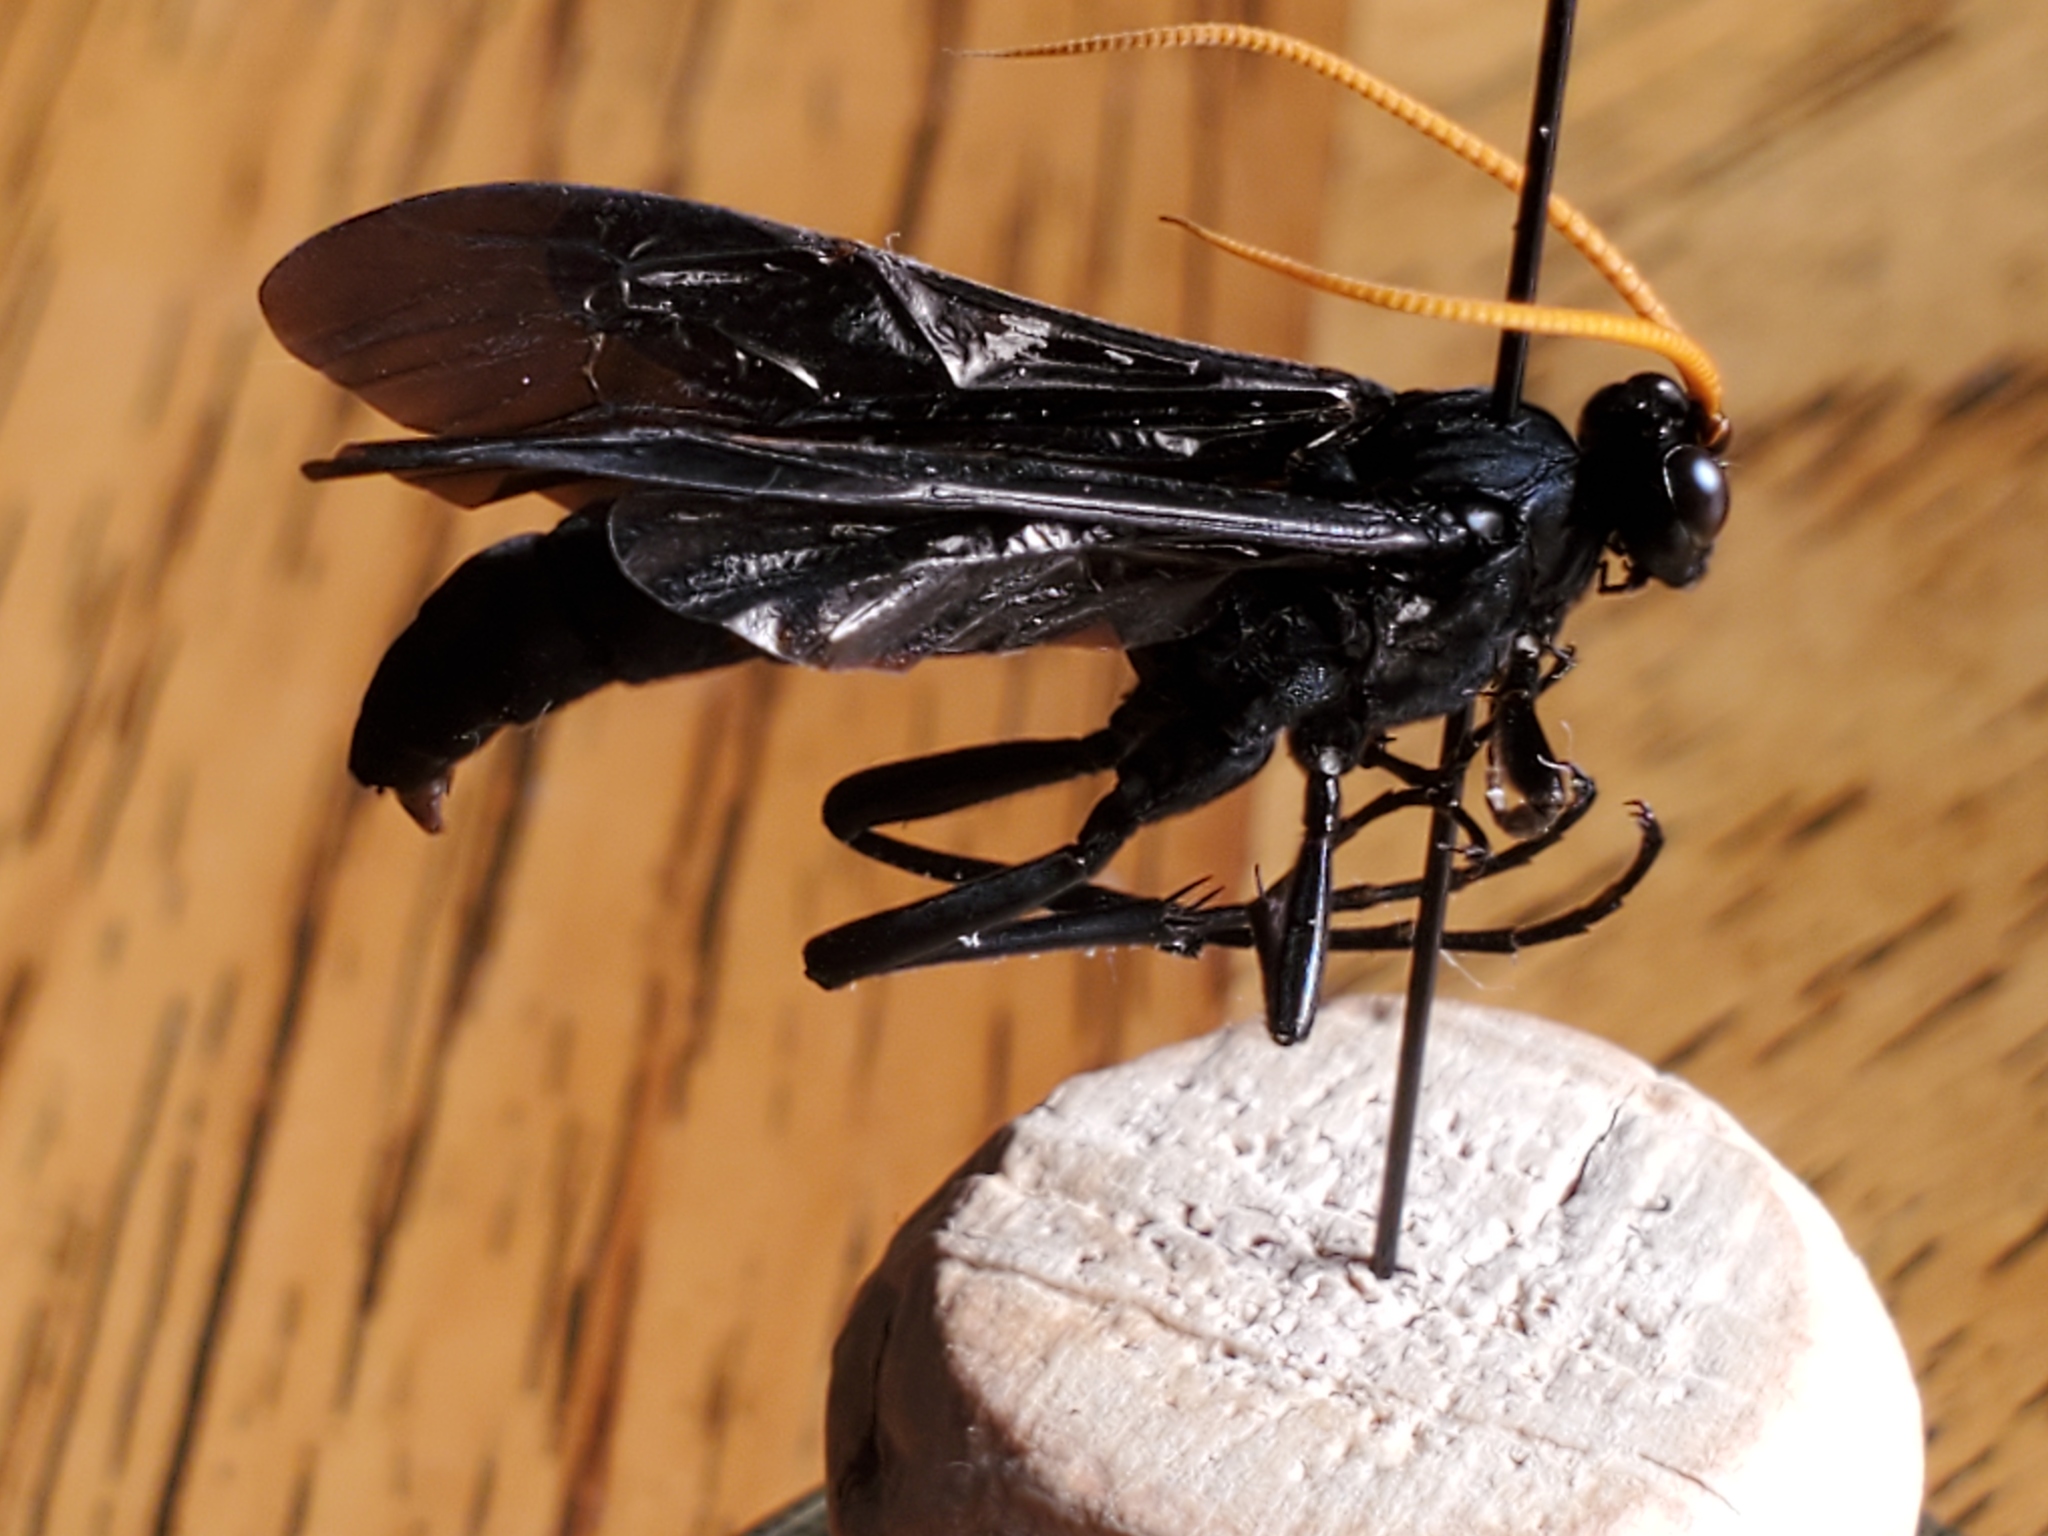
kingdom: Animalia
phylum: Arthropoda
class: Insecta
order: Hymenoptera
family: Ichneumonidae
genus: Gnamptopelta
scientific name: Gnamptopelta obsidianator
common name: Bent-shielded besieger wasp
